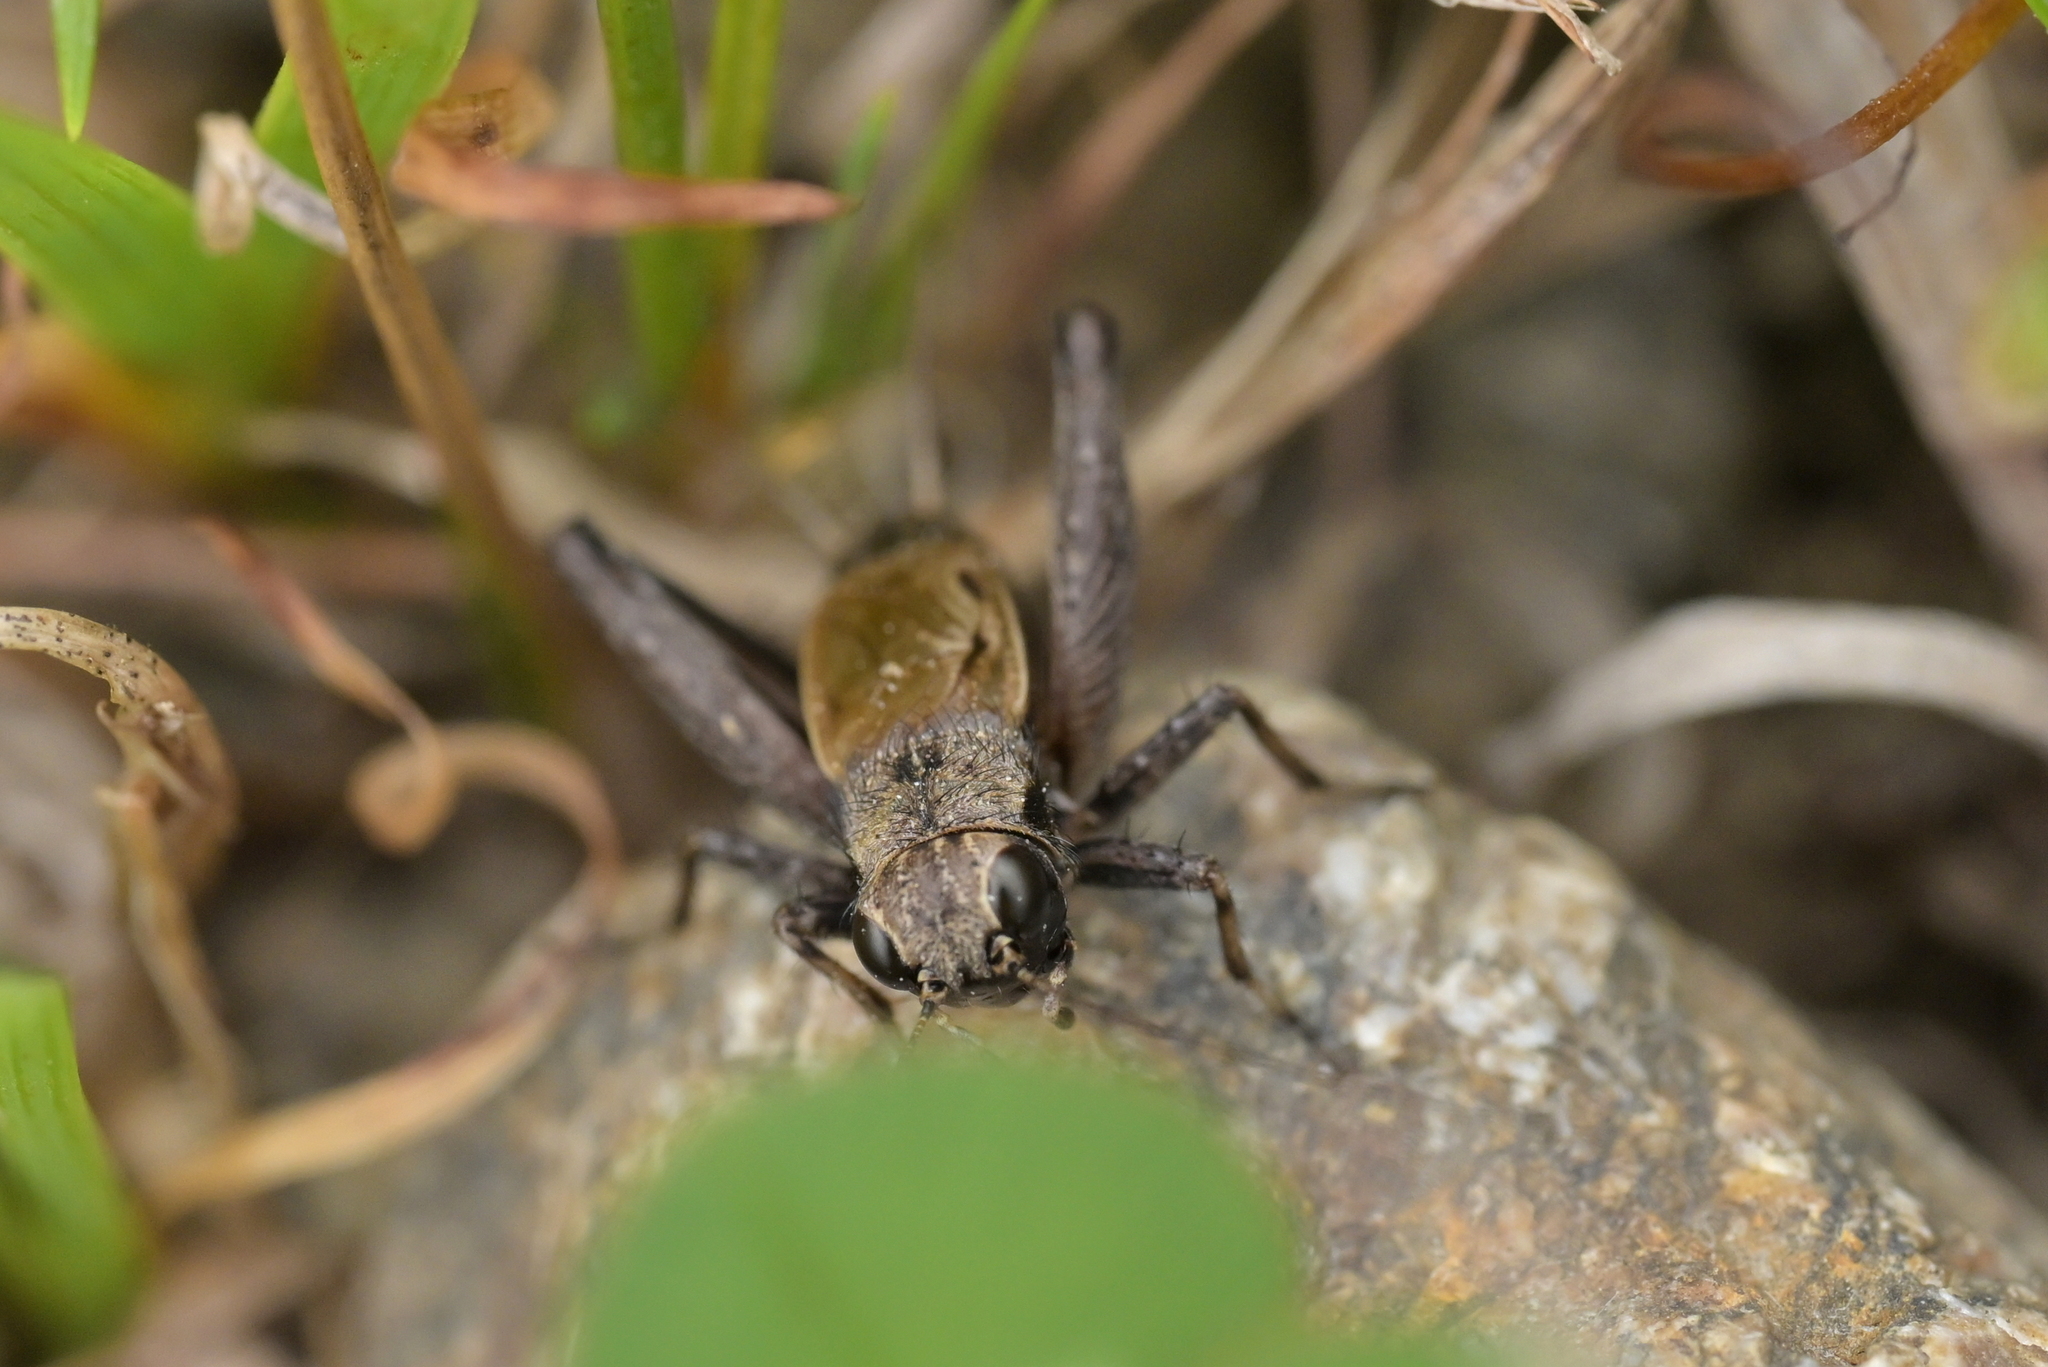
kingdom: Animalia
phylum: Arthropoda
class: Insecta
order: Orthoptera
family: Trigonidiidae
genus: Bobilla
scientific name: Bobilla nigrovus
